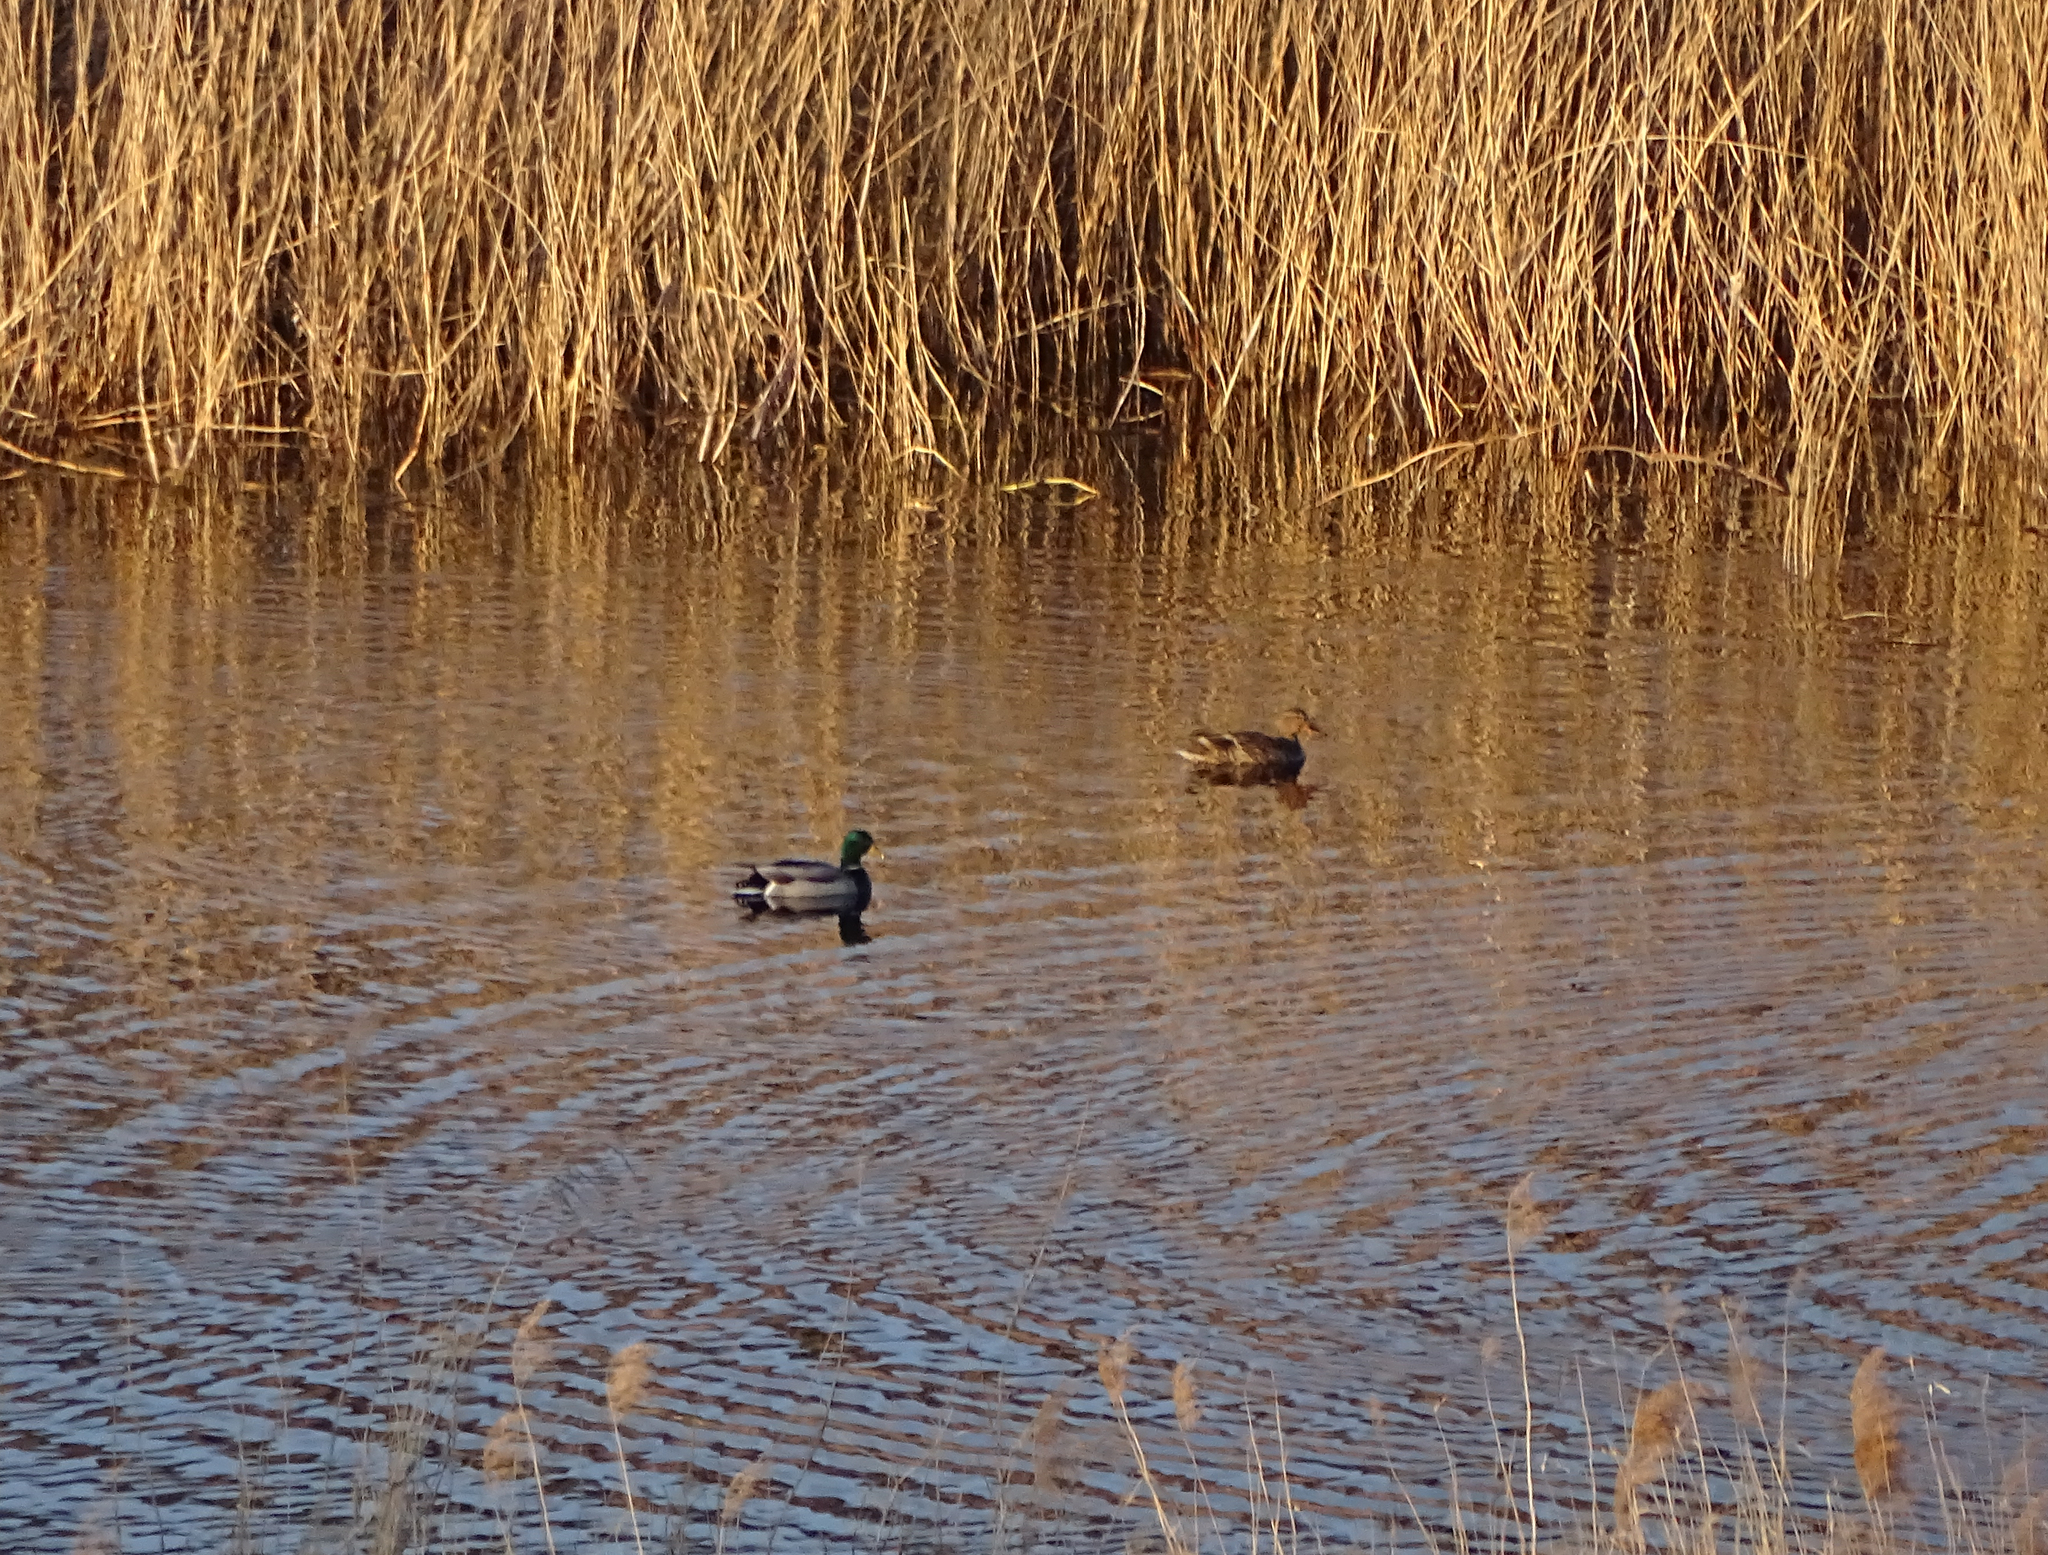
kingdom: Animalia
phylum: Chordata
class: Aves
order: Anseriformes
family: Anatidae
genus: Anas
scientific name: Anas platyrhynchos
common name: Mallard
